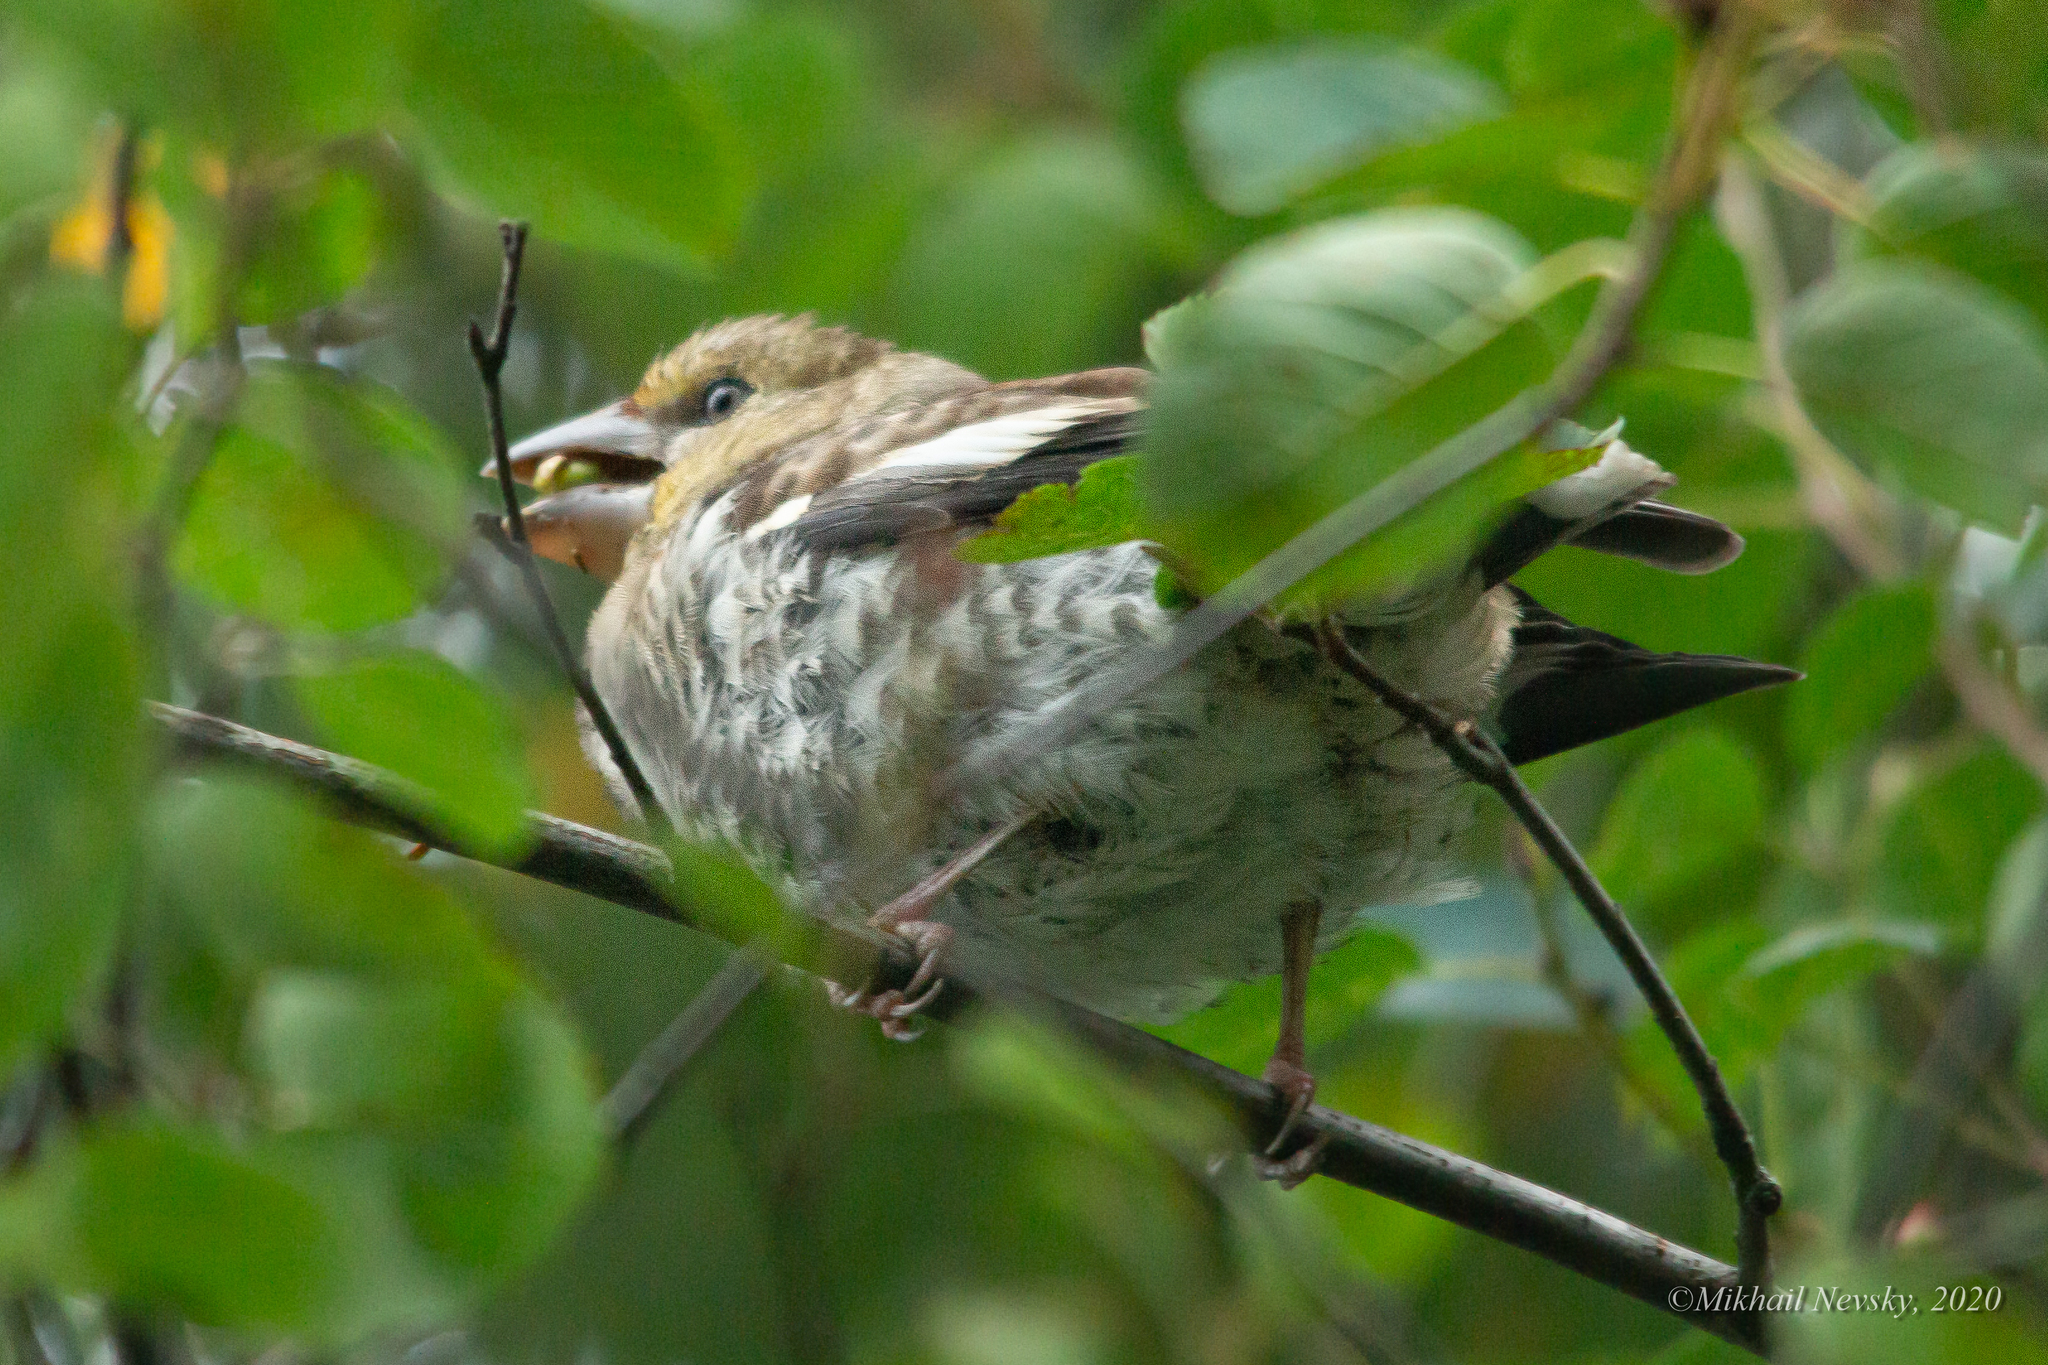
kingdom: Animalia
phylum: Chordata
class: Aves
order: Passeriformes
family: Fringillidae
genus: Coccothraustes
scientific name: Coccothraustes coccothraustes
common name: Hawfinch
